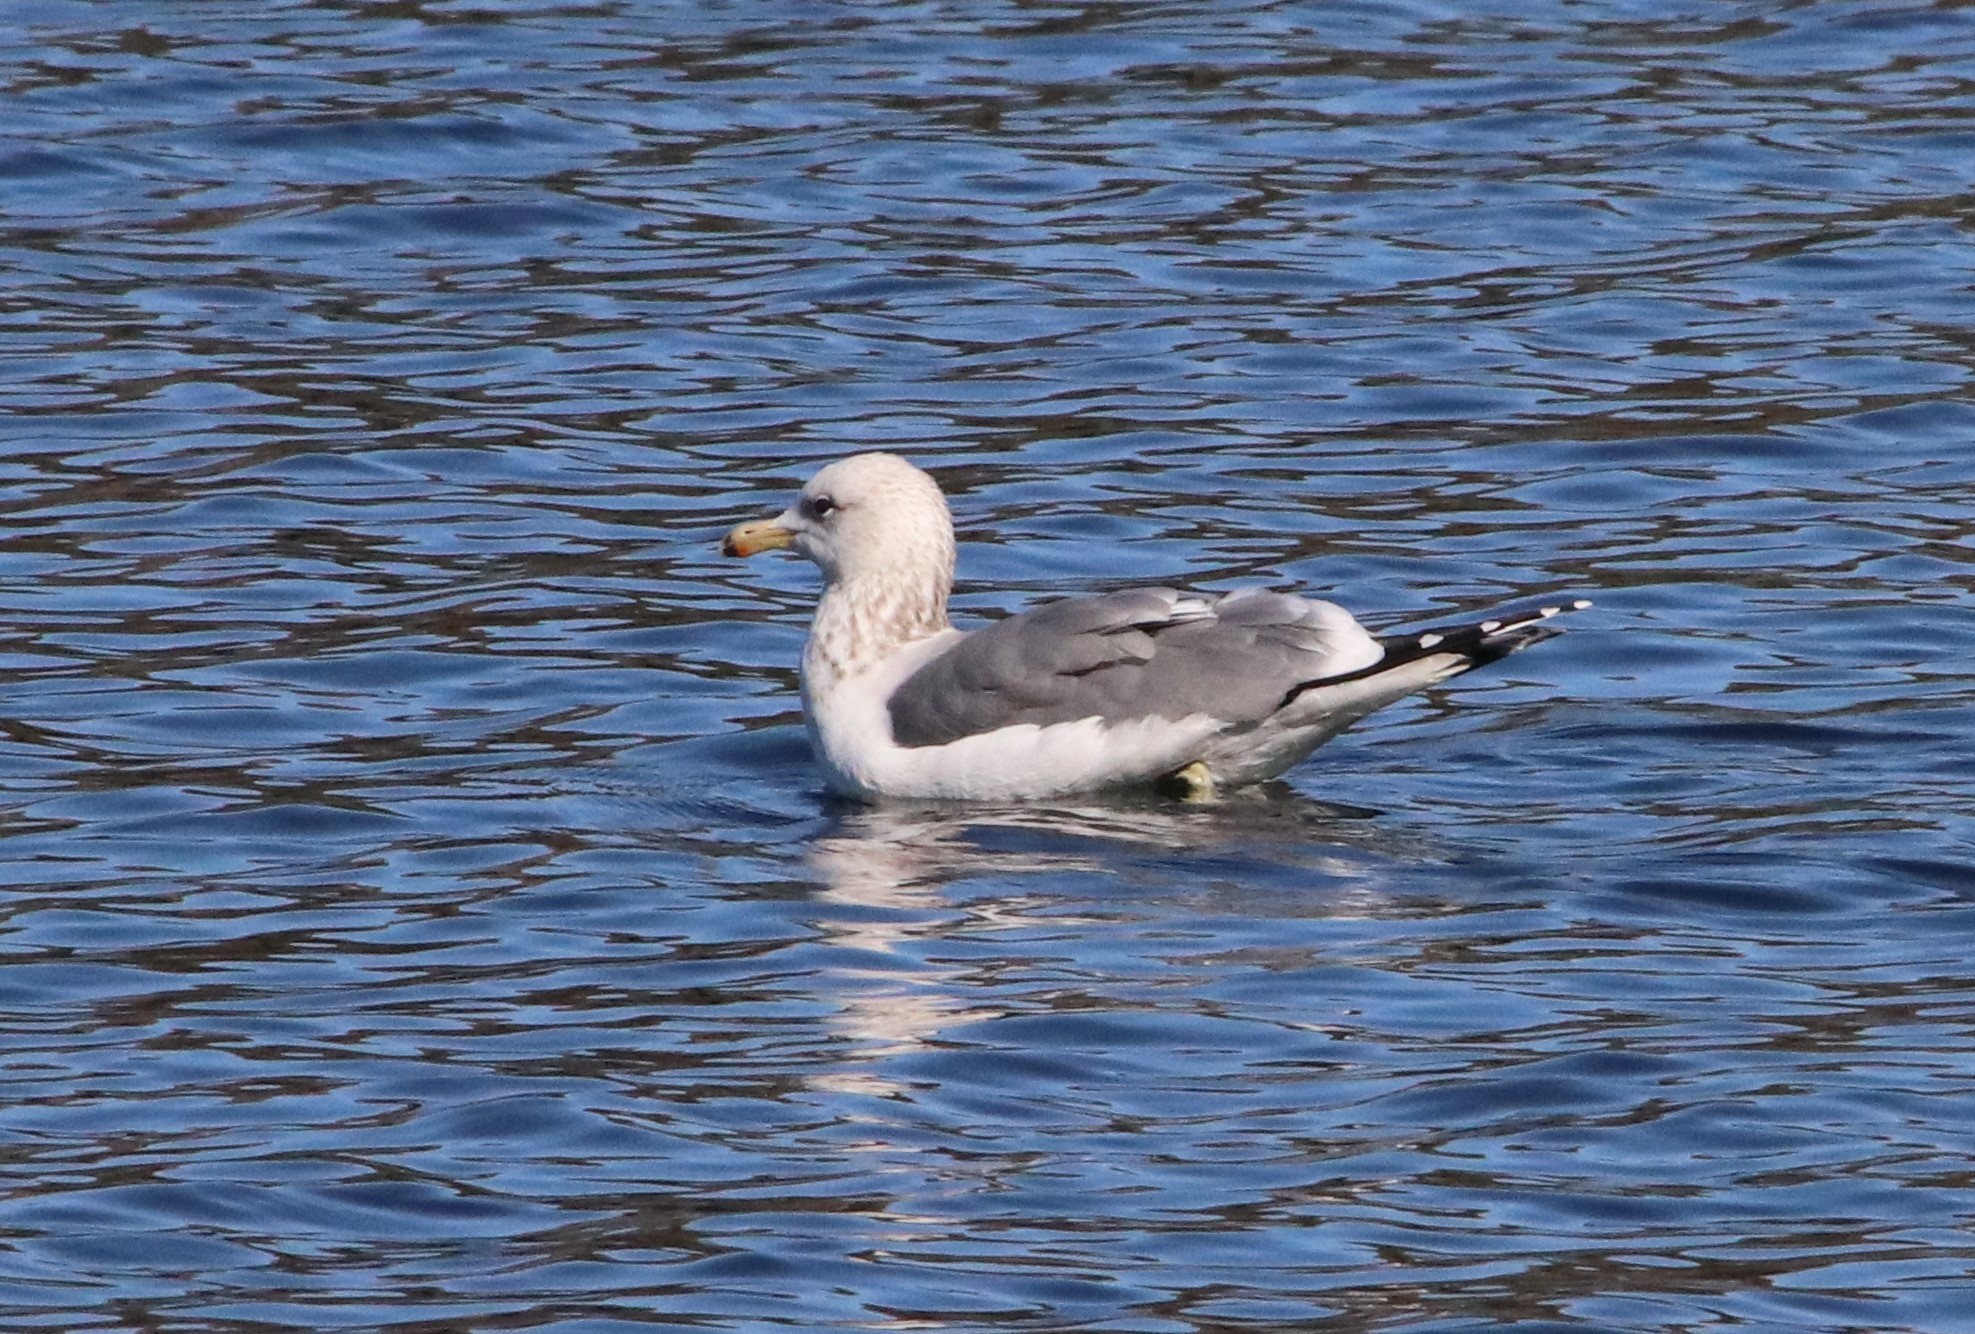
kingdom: Animalia
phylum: Chordata
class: Aves
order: Charadriiformes
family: Laridae
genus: Larus
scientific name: Larus californicus
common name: California gull
